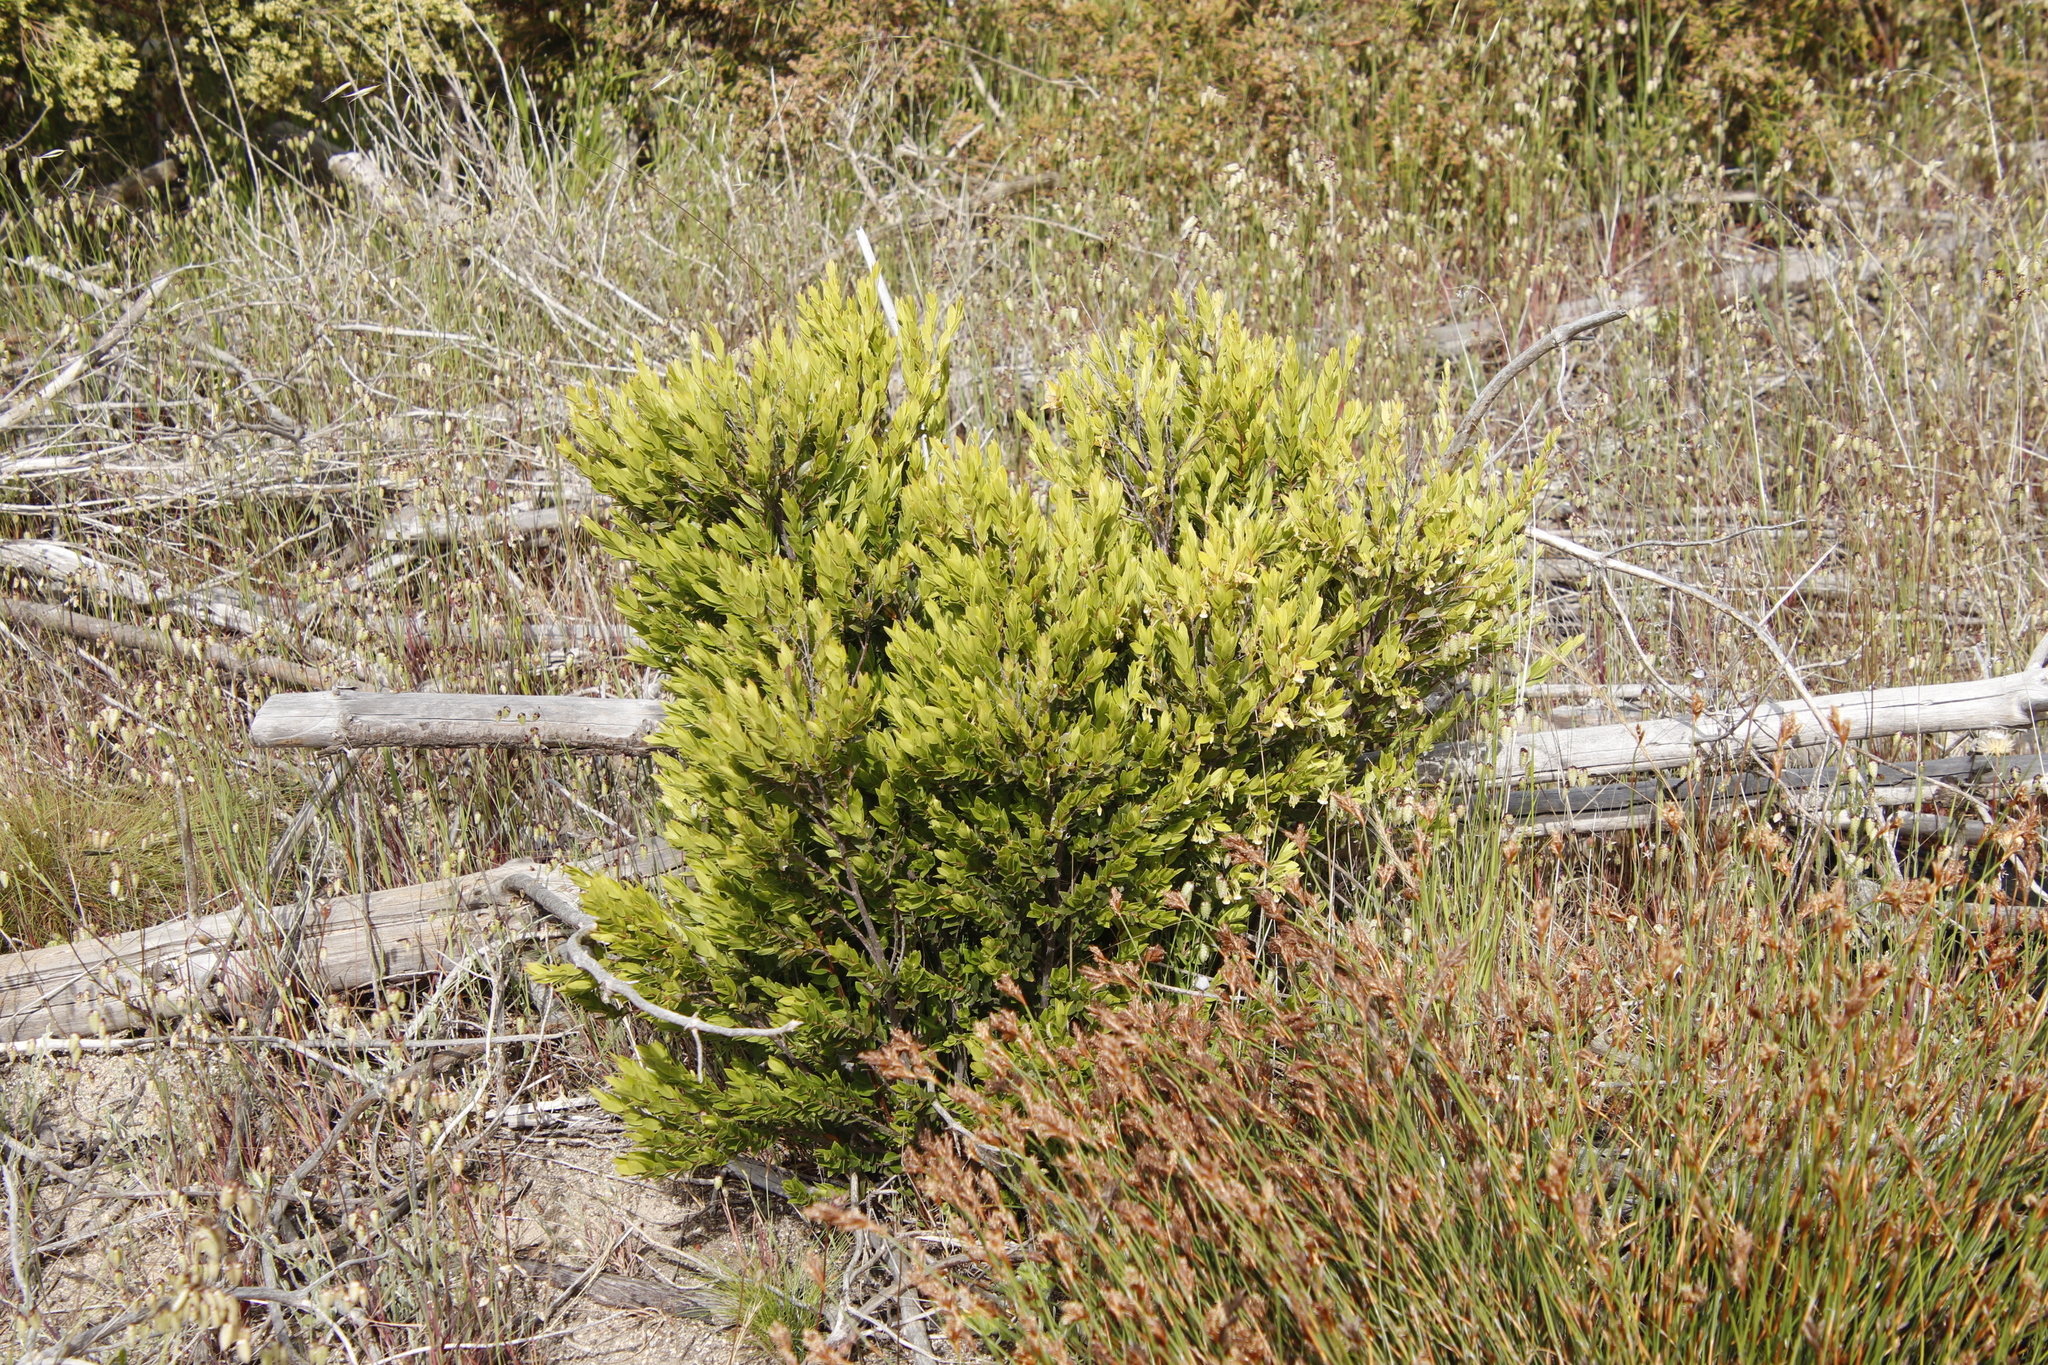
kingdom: Plantae
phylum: Tracheophyta
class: Magnoliopsida
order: Ericales
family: Ebenaceae
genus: Diospyros
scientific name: Diospyros glabra
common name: Fynbos star apple
